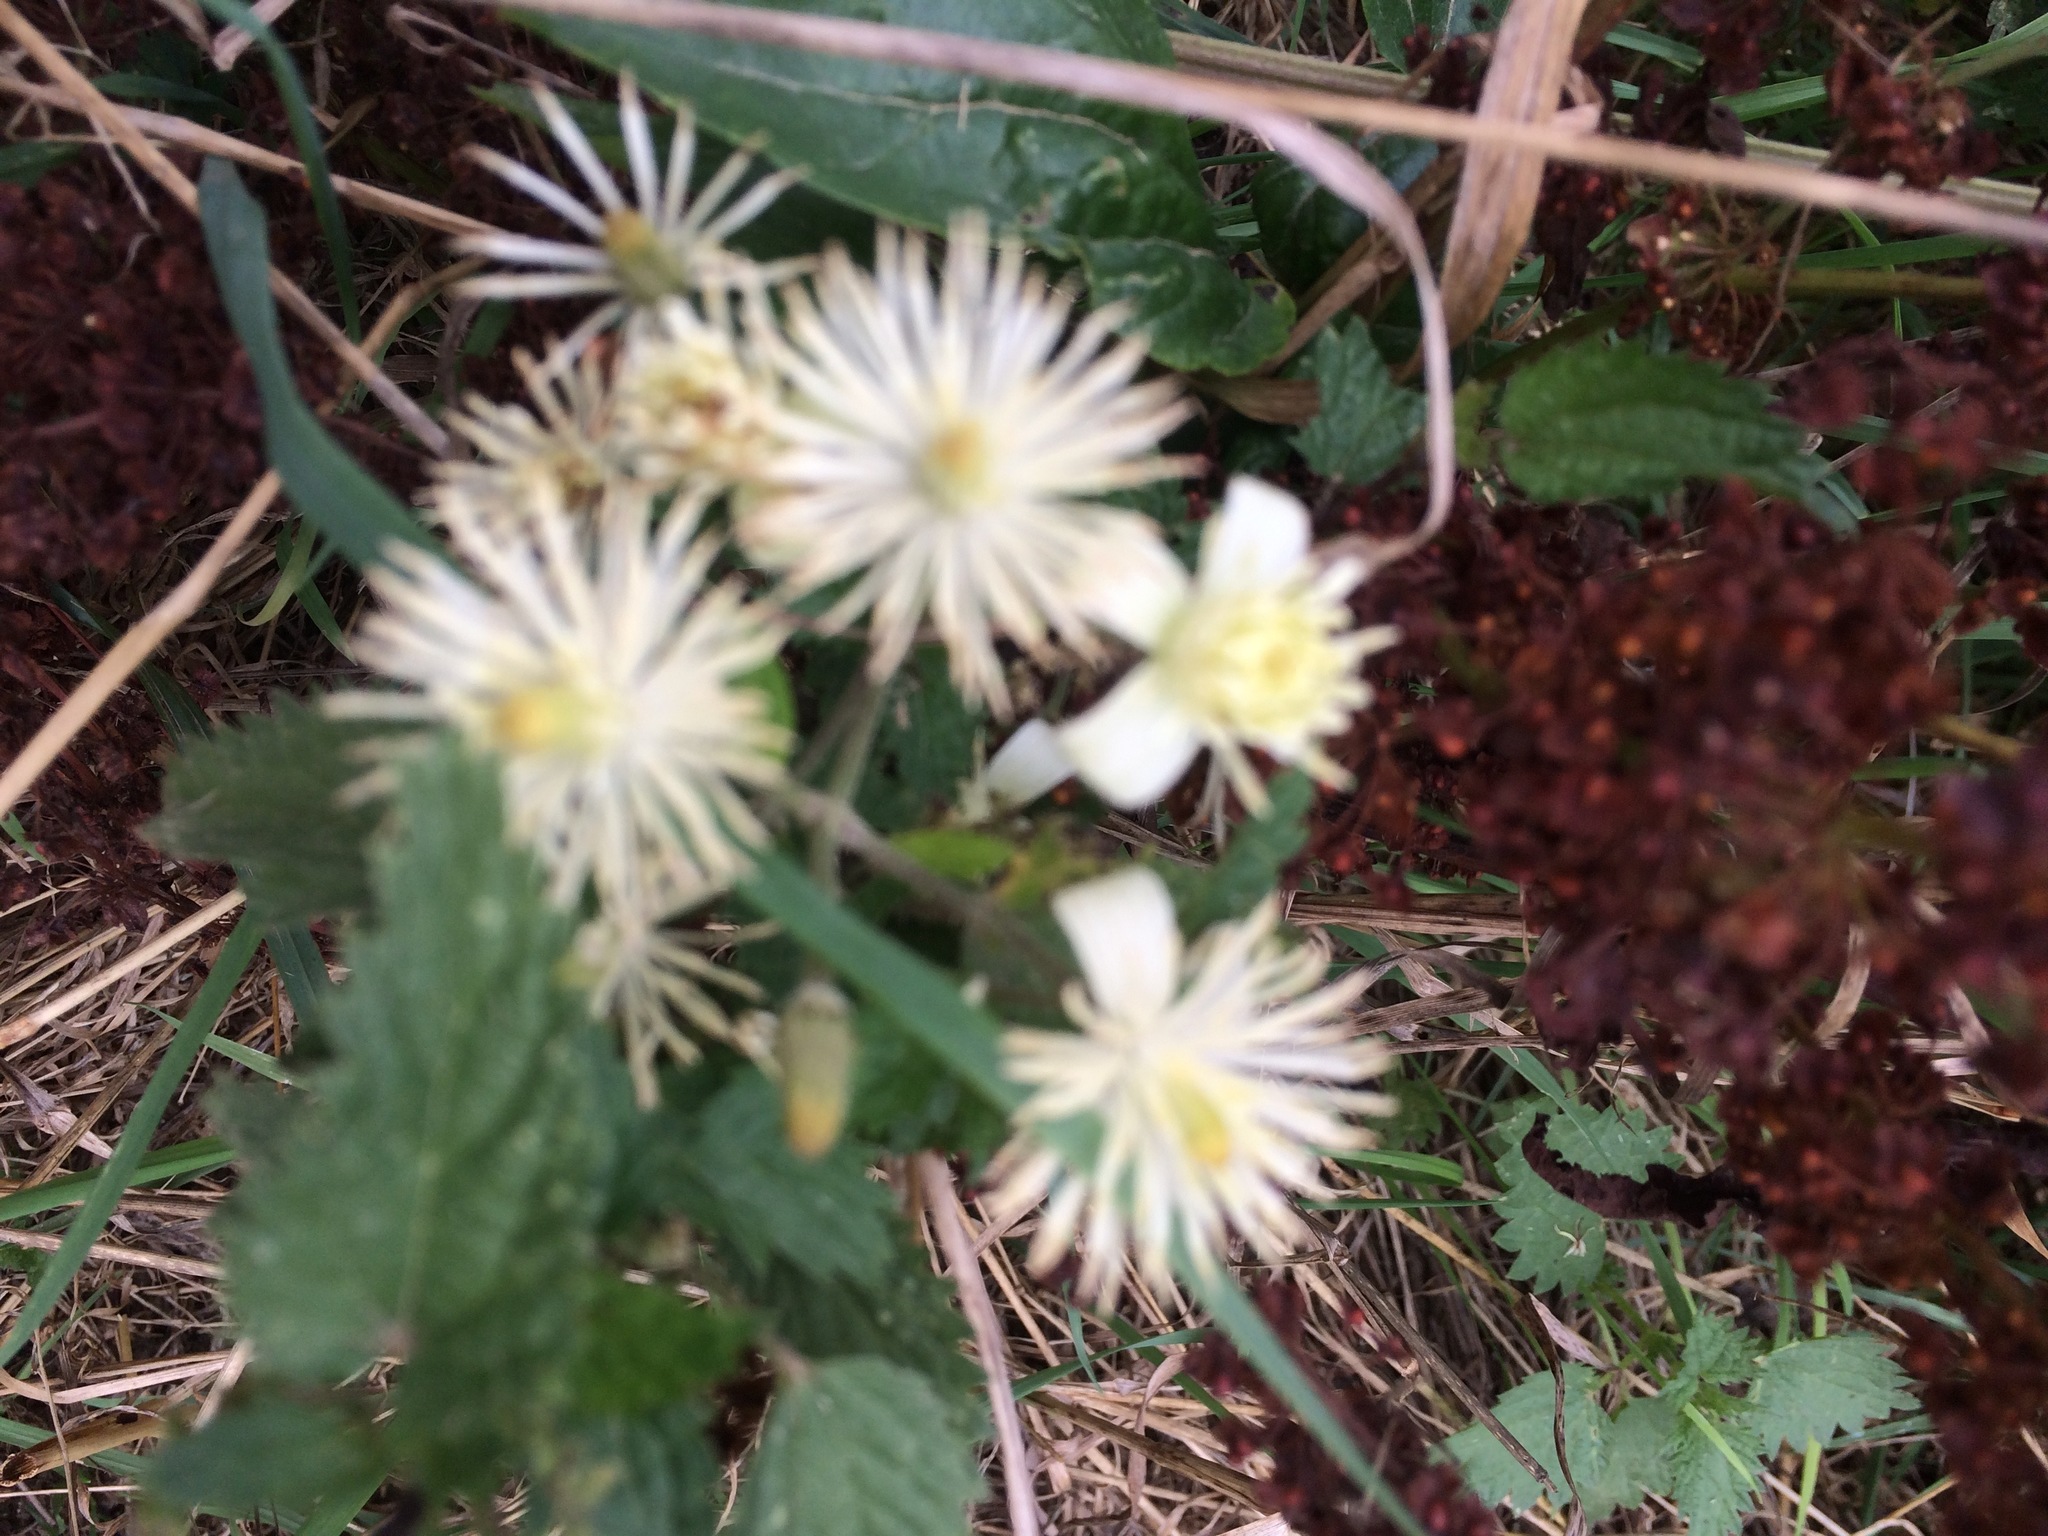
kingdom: Plantae
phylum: Tracheophyta
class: Magnoliopsida
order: Ranunculales
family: Ranunculaceae
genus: Clematis
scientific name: Clematis vitalba
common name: Evergreen clematis
